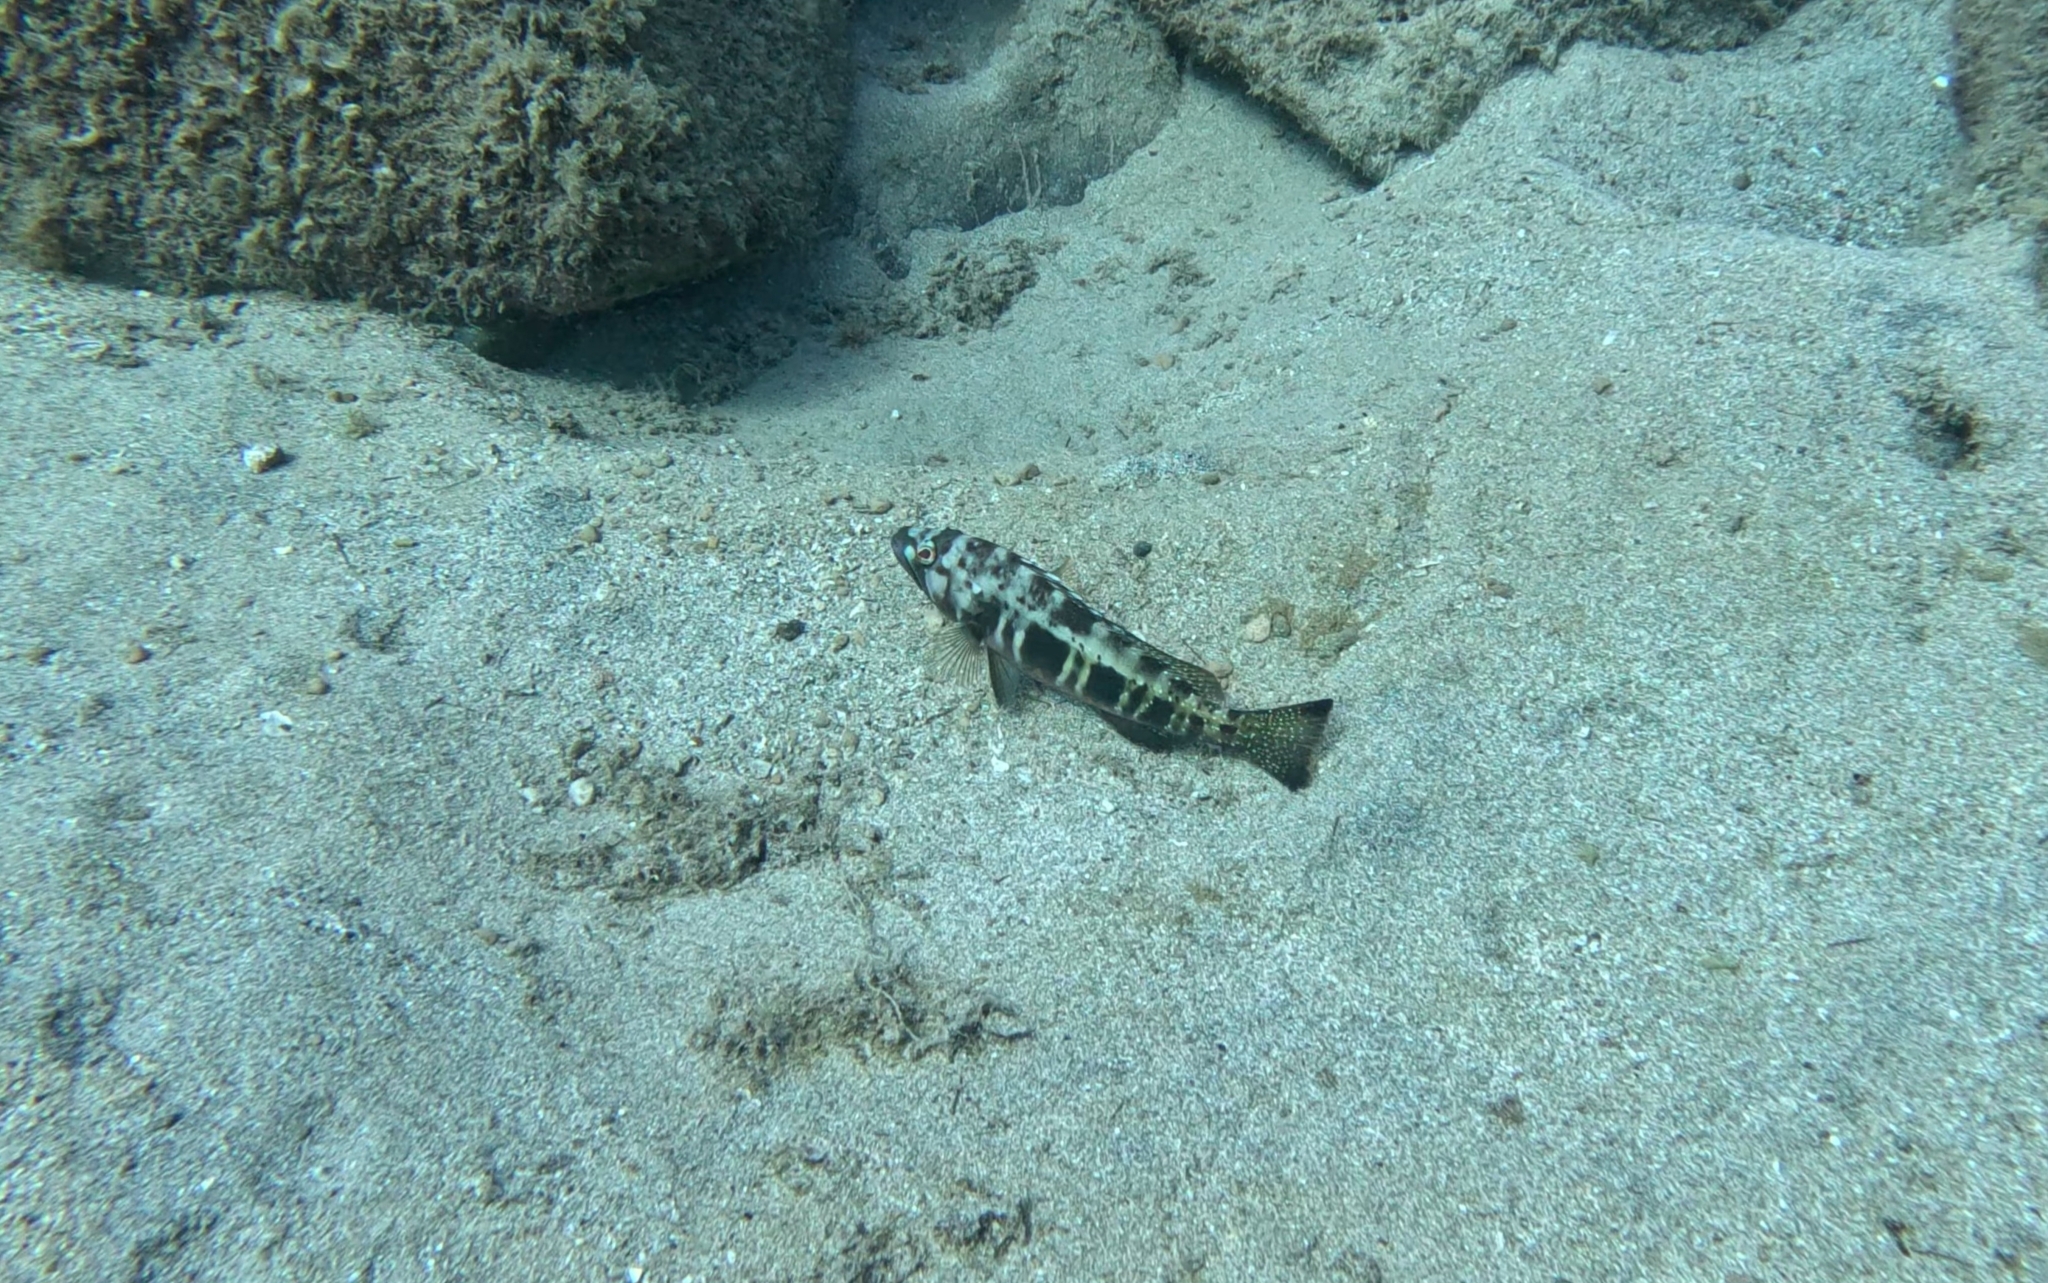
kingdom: Animalia
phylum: Chordata
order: Perciformes
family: Serranidae
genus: Serranus
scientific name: Serranus atricauda
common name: Blacktail comber
